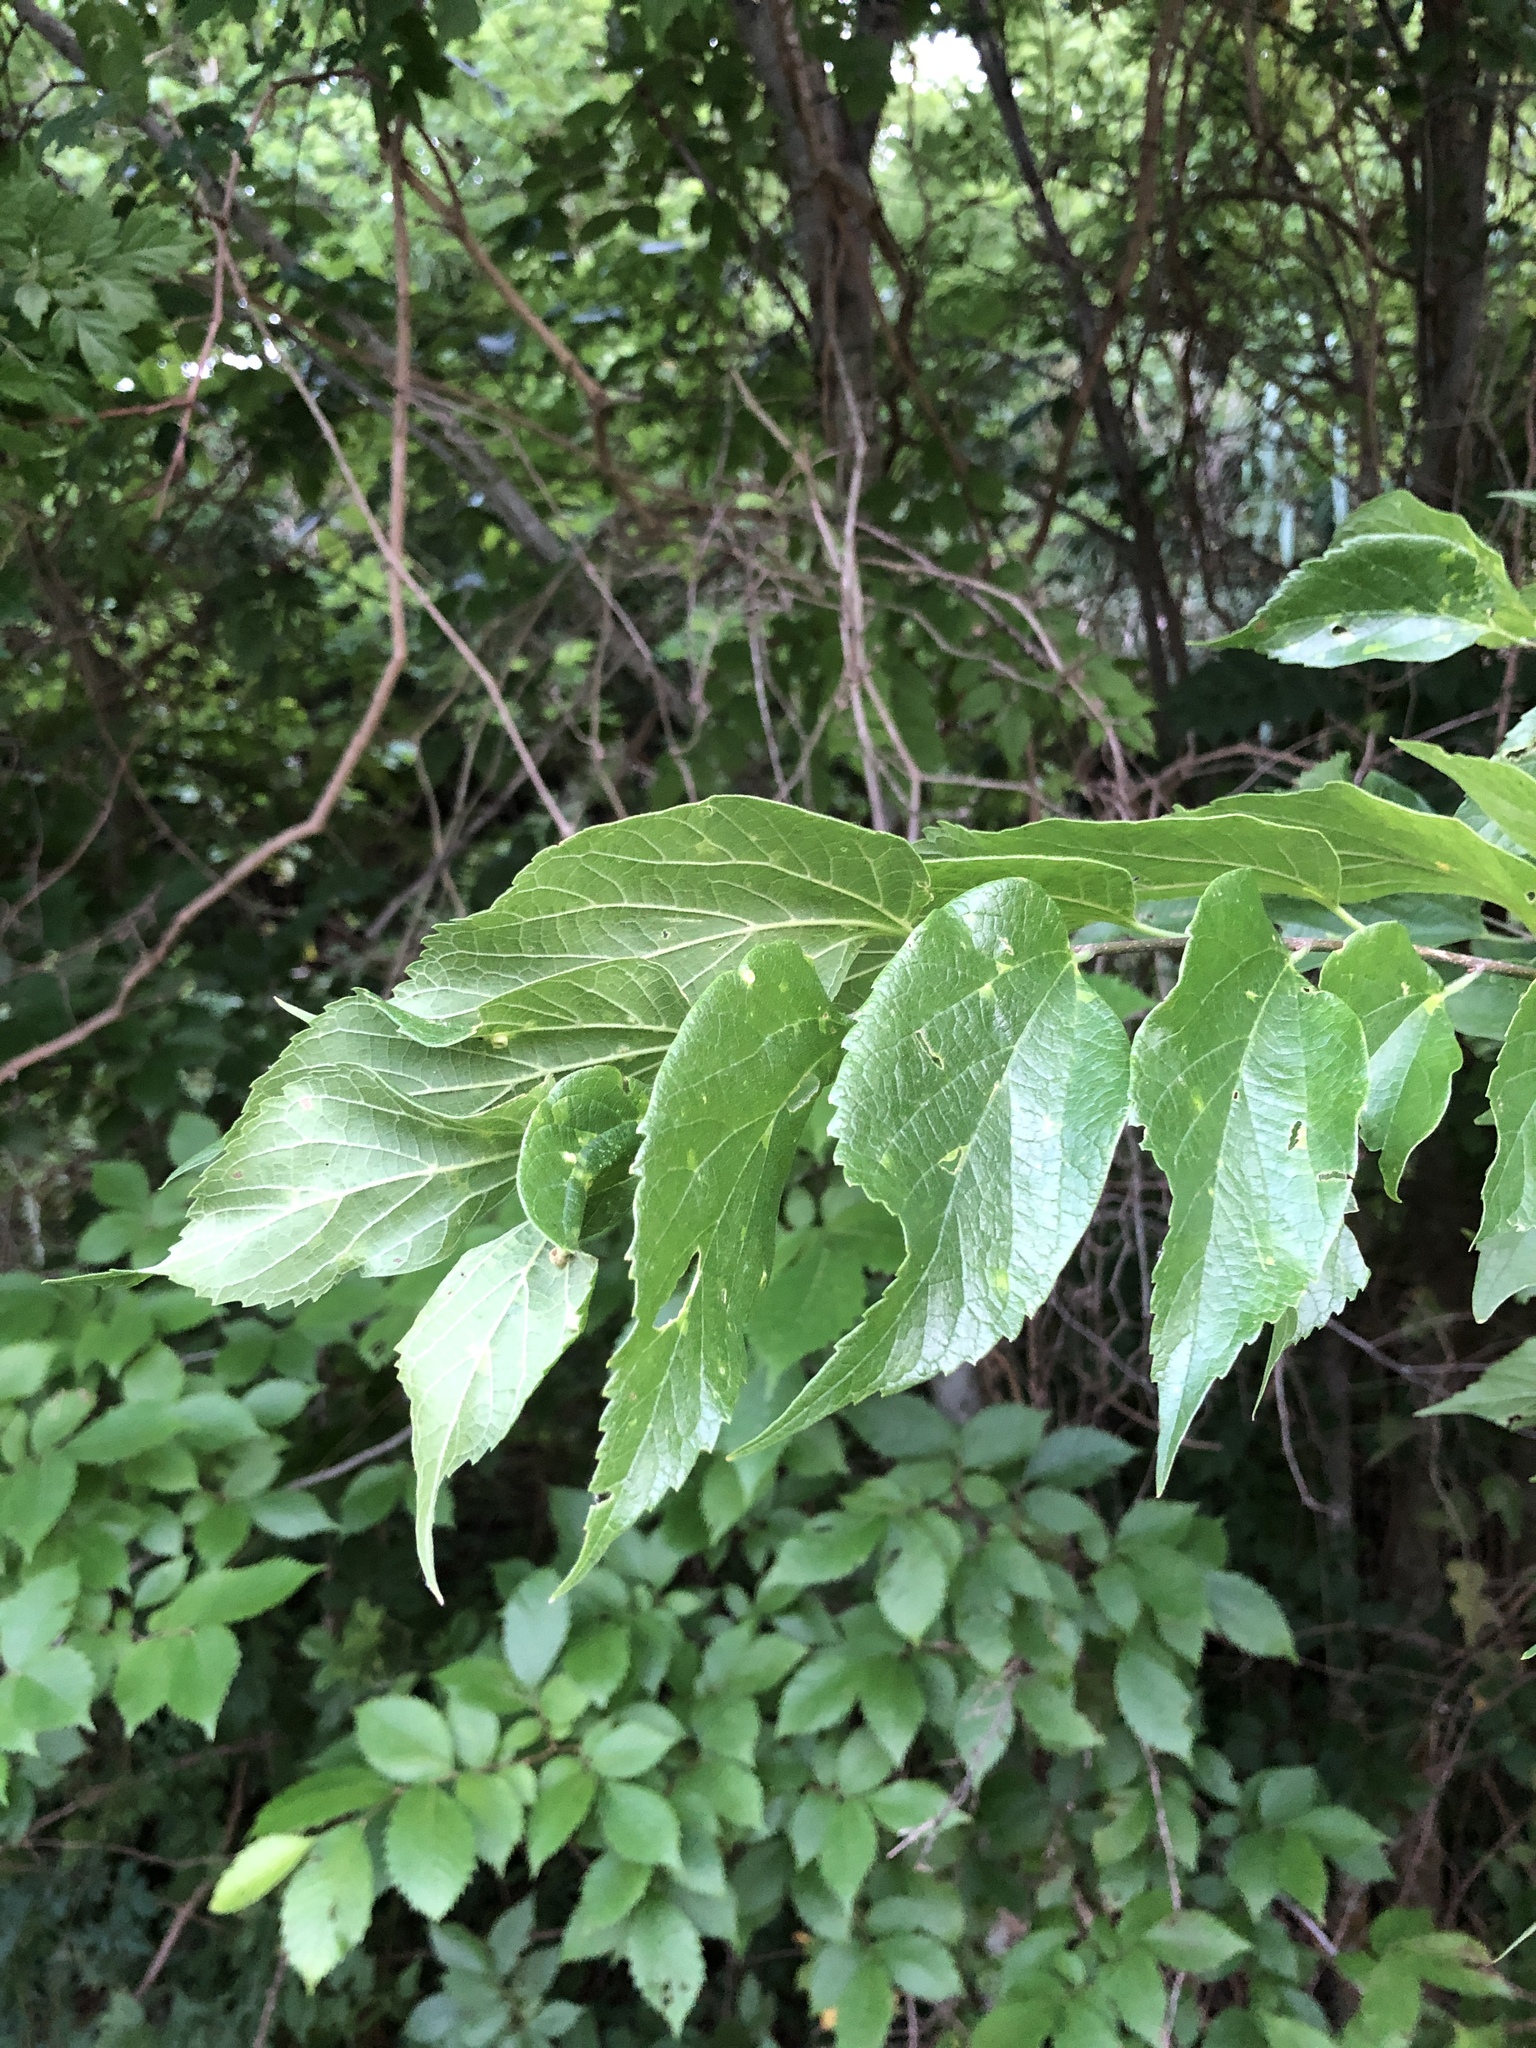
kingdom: Plantae
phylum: Tracheophyta
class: Magnoliopsida
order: Rosales
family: Cannabaceae
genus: Celtis
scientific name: Celtis laevigata
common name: Sugarberry
